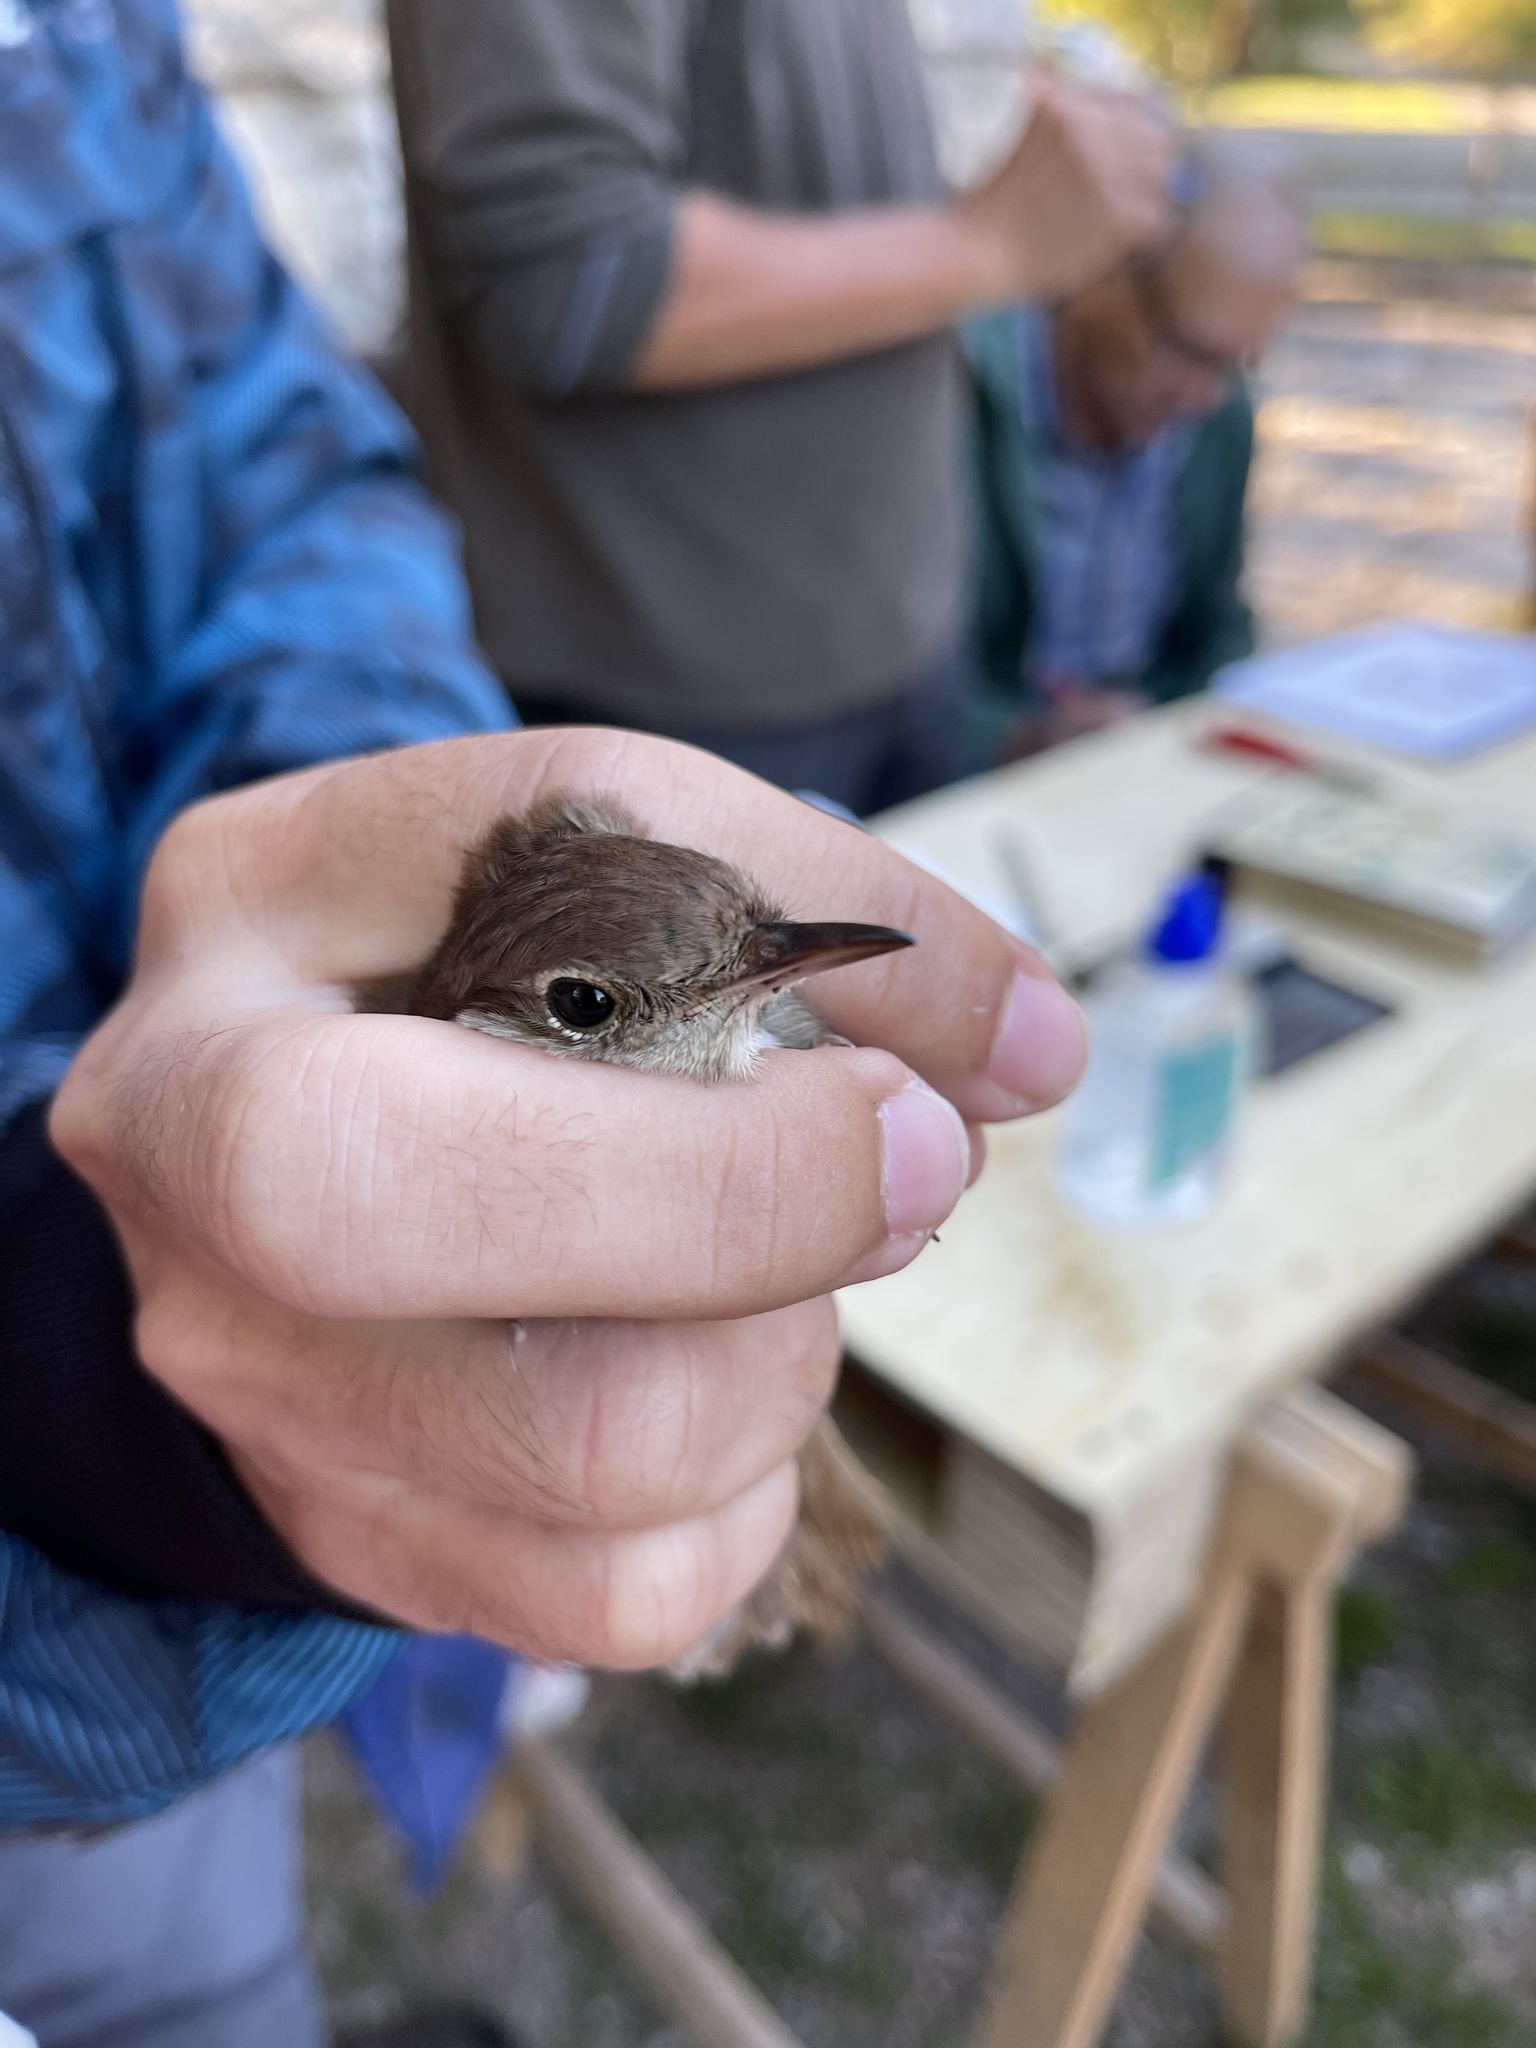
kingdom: Animalia
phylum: Chordata
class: Aves
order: Passeriformes
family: Muscicapidae
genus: Luscinia
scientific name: Luscinia megarhynchos
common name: Common nightingale
